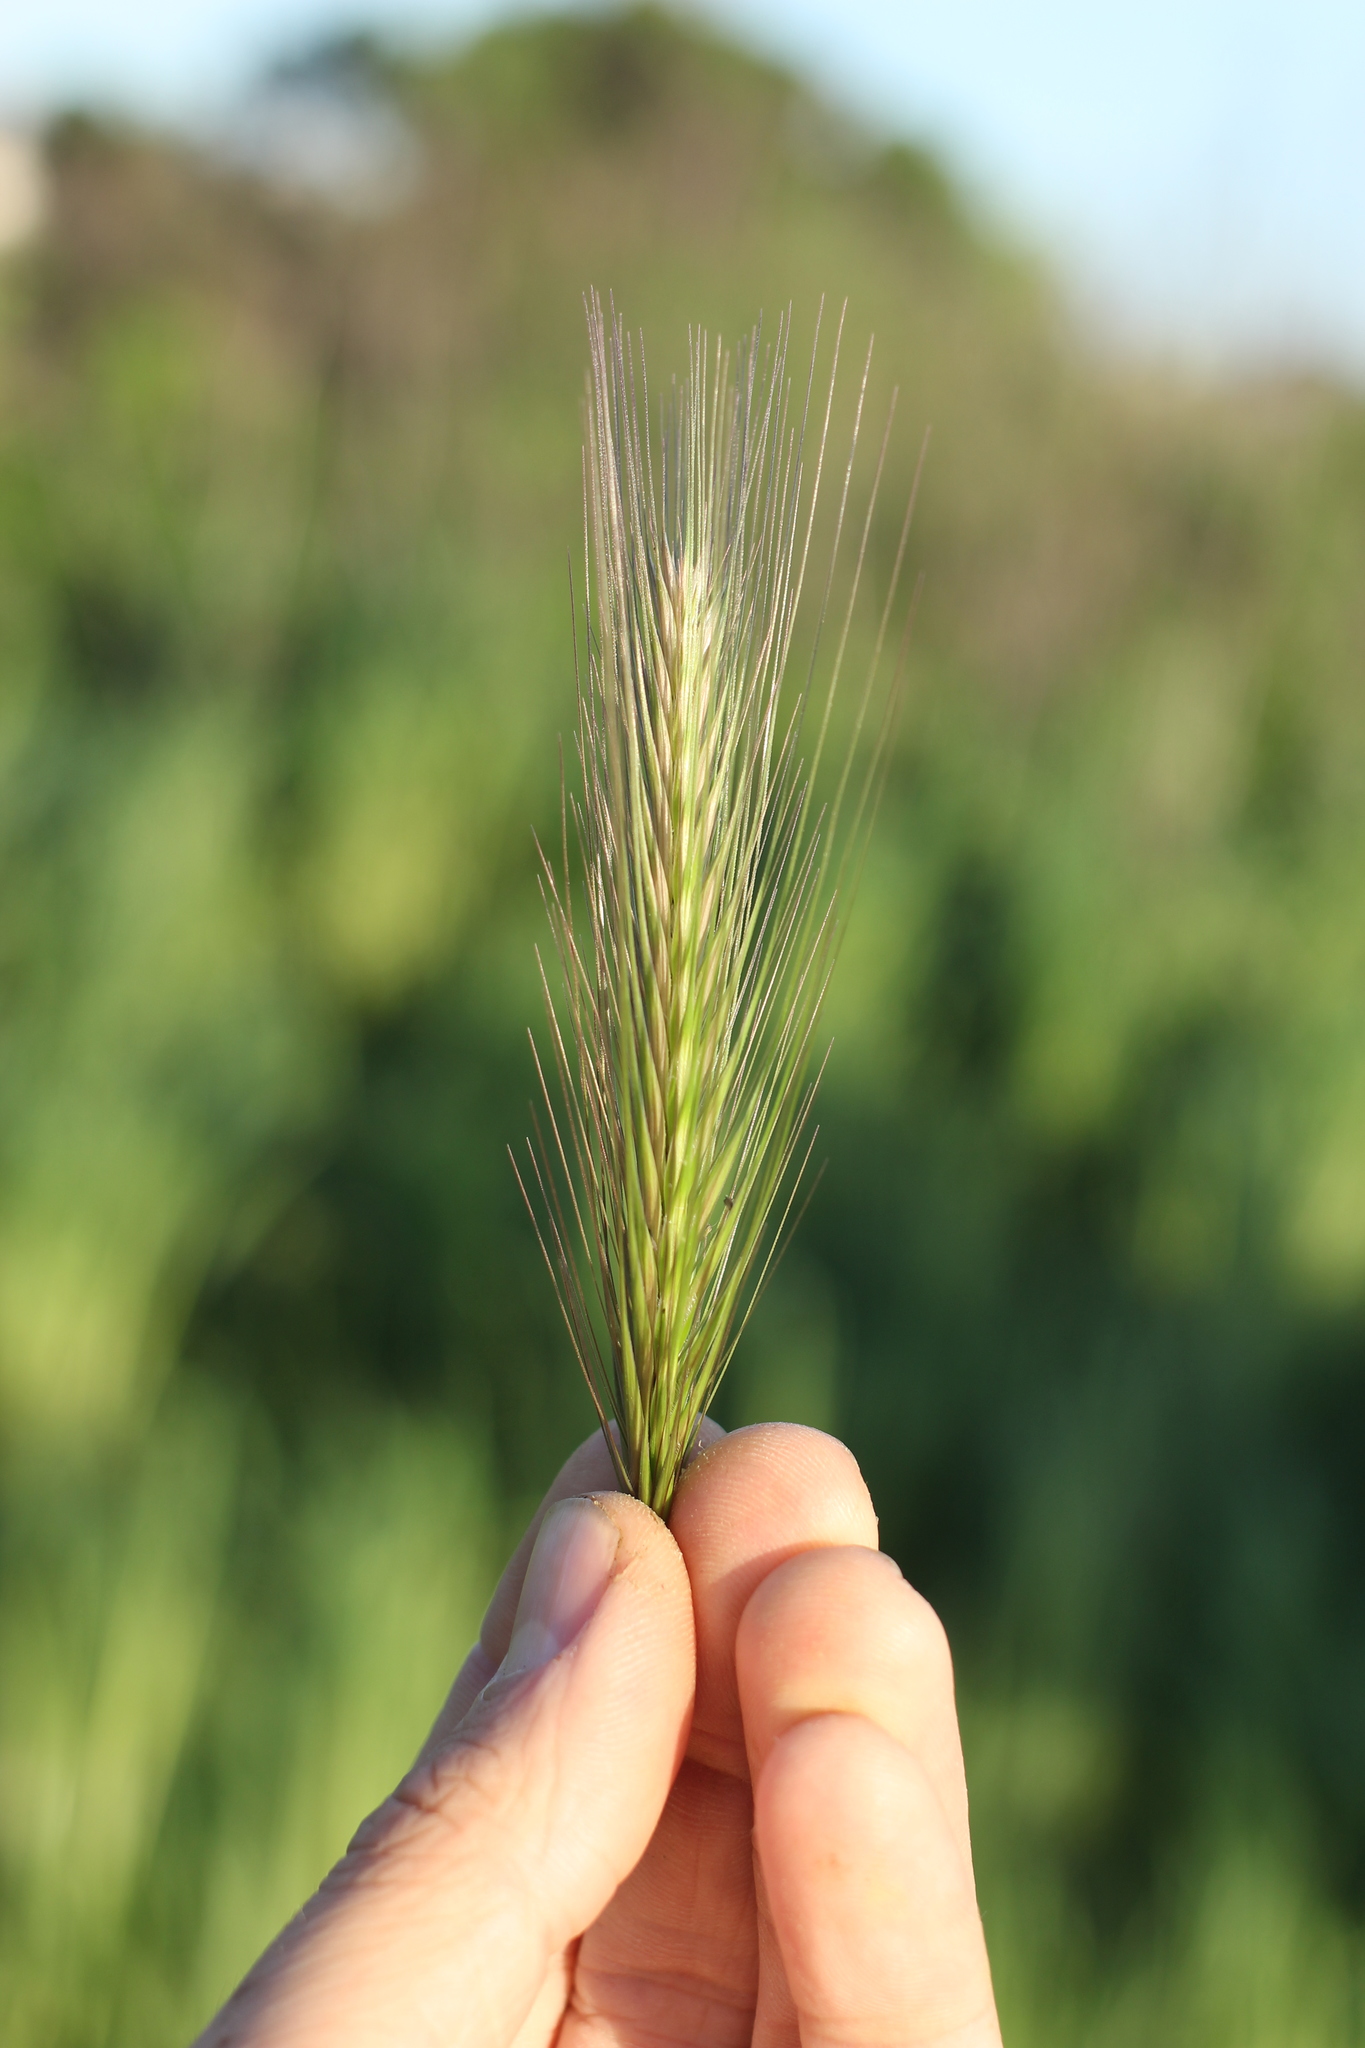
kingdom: Plantae
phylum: Tracheophyta
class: Liliopsida
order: Poales
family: Poaceae
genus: Hordeum
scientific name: Hordeum murinum
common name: Wall barley
